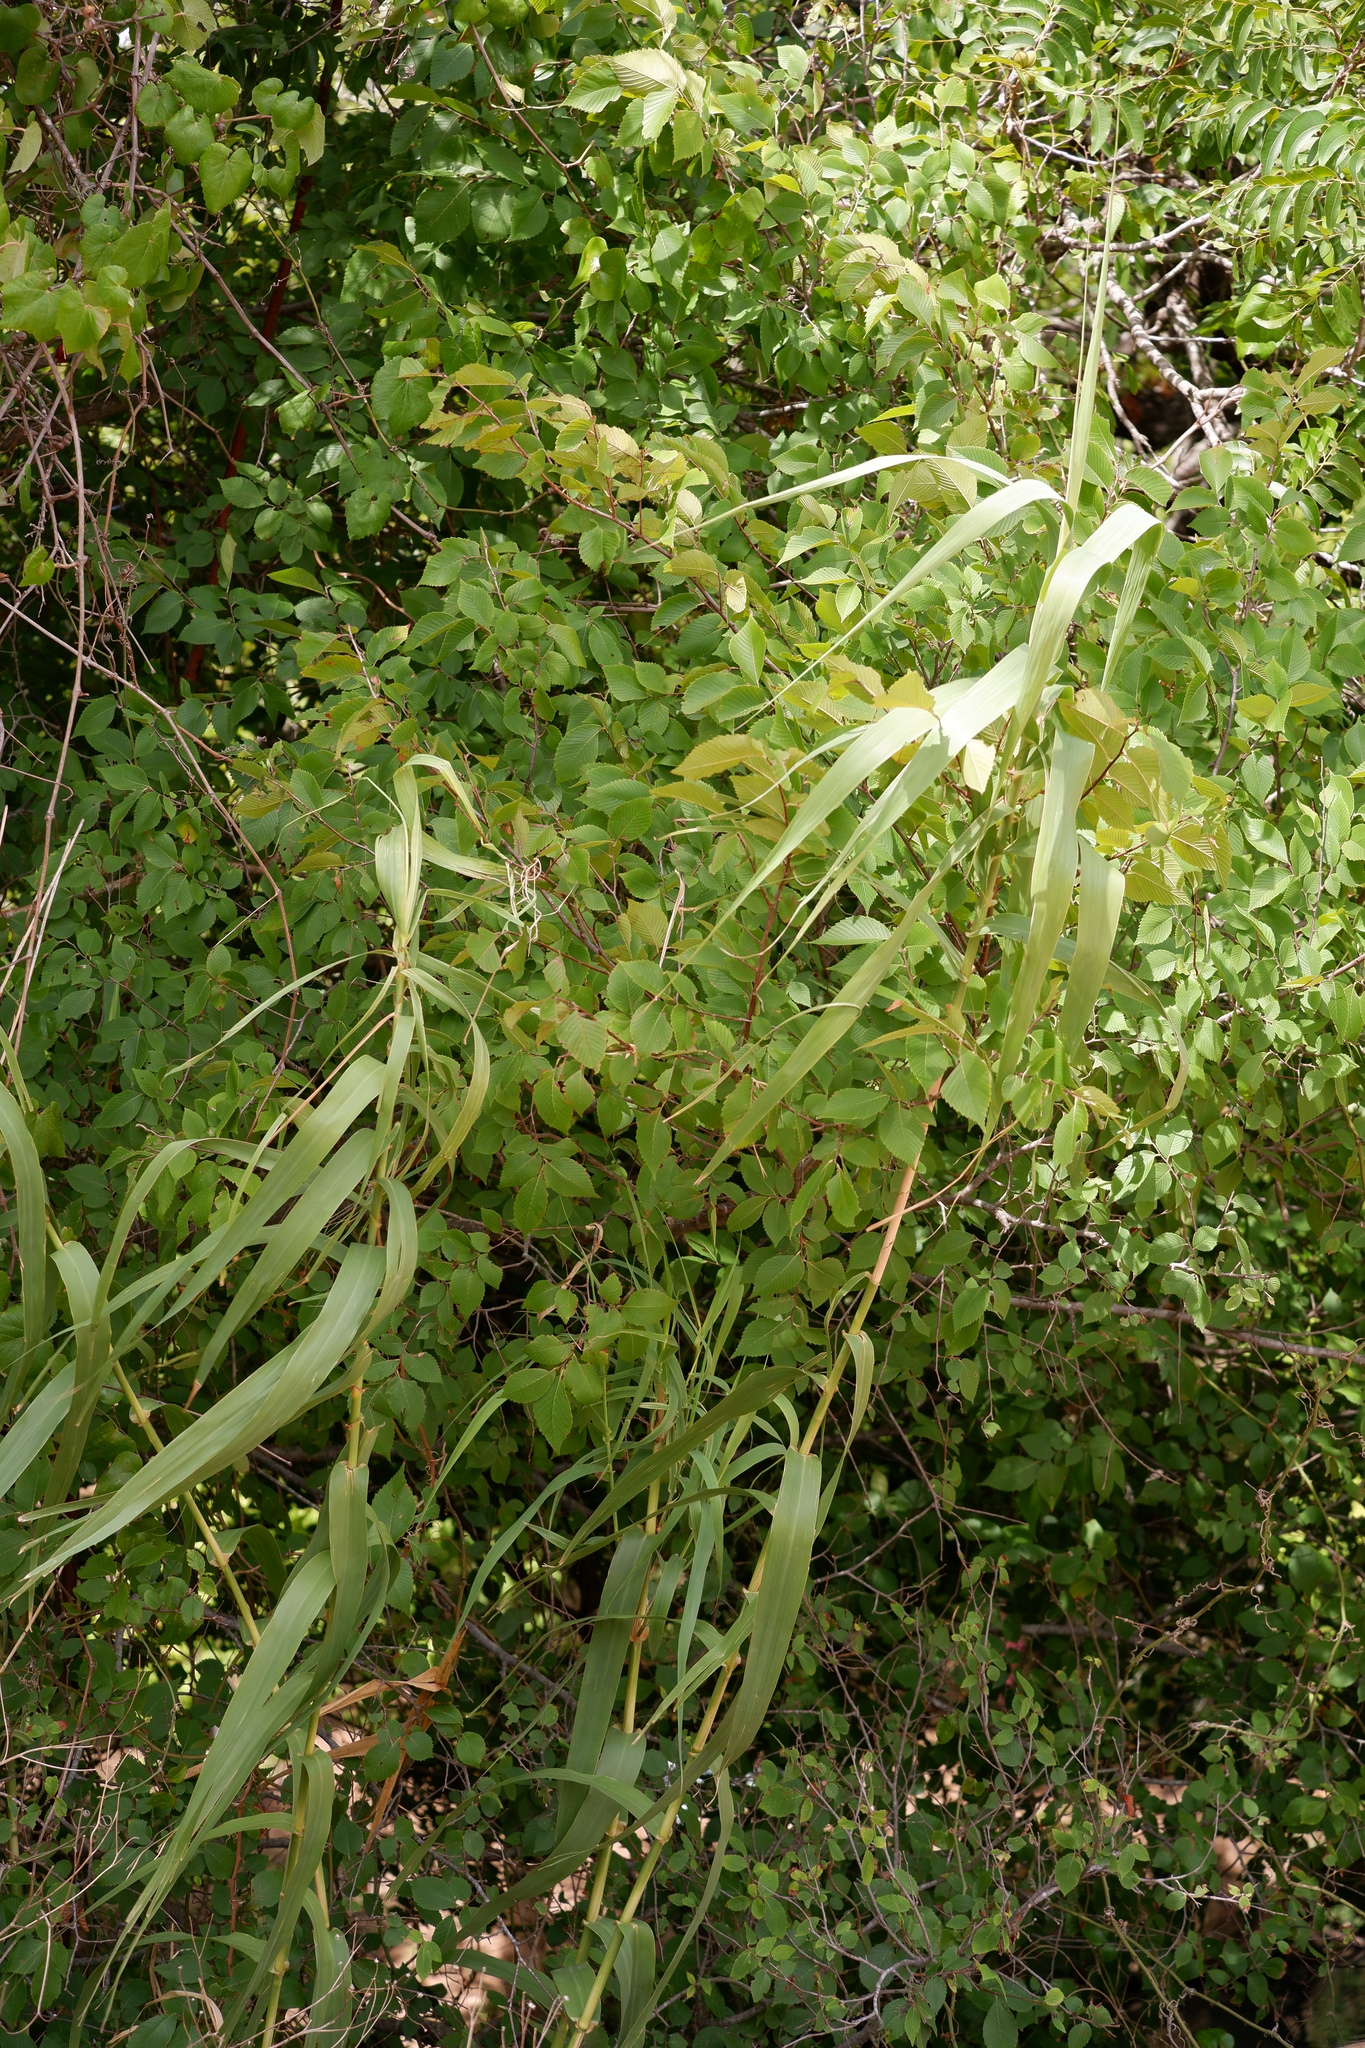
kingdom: Plantae
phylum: Tracheophyta
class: Liliopsida
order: Poales
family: Poaceae
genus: Arundo
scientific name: Arundo donax
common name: Giant reed
